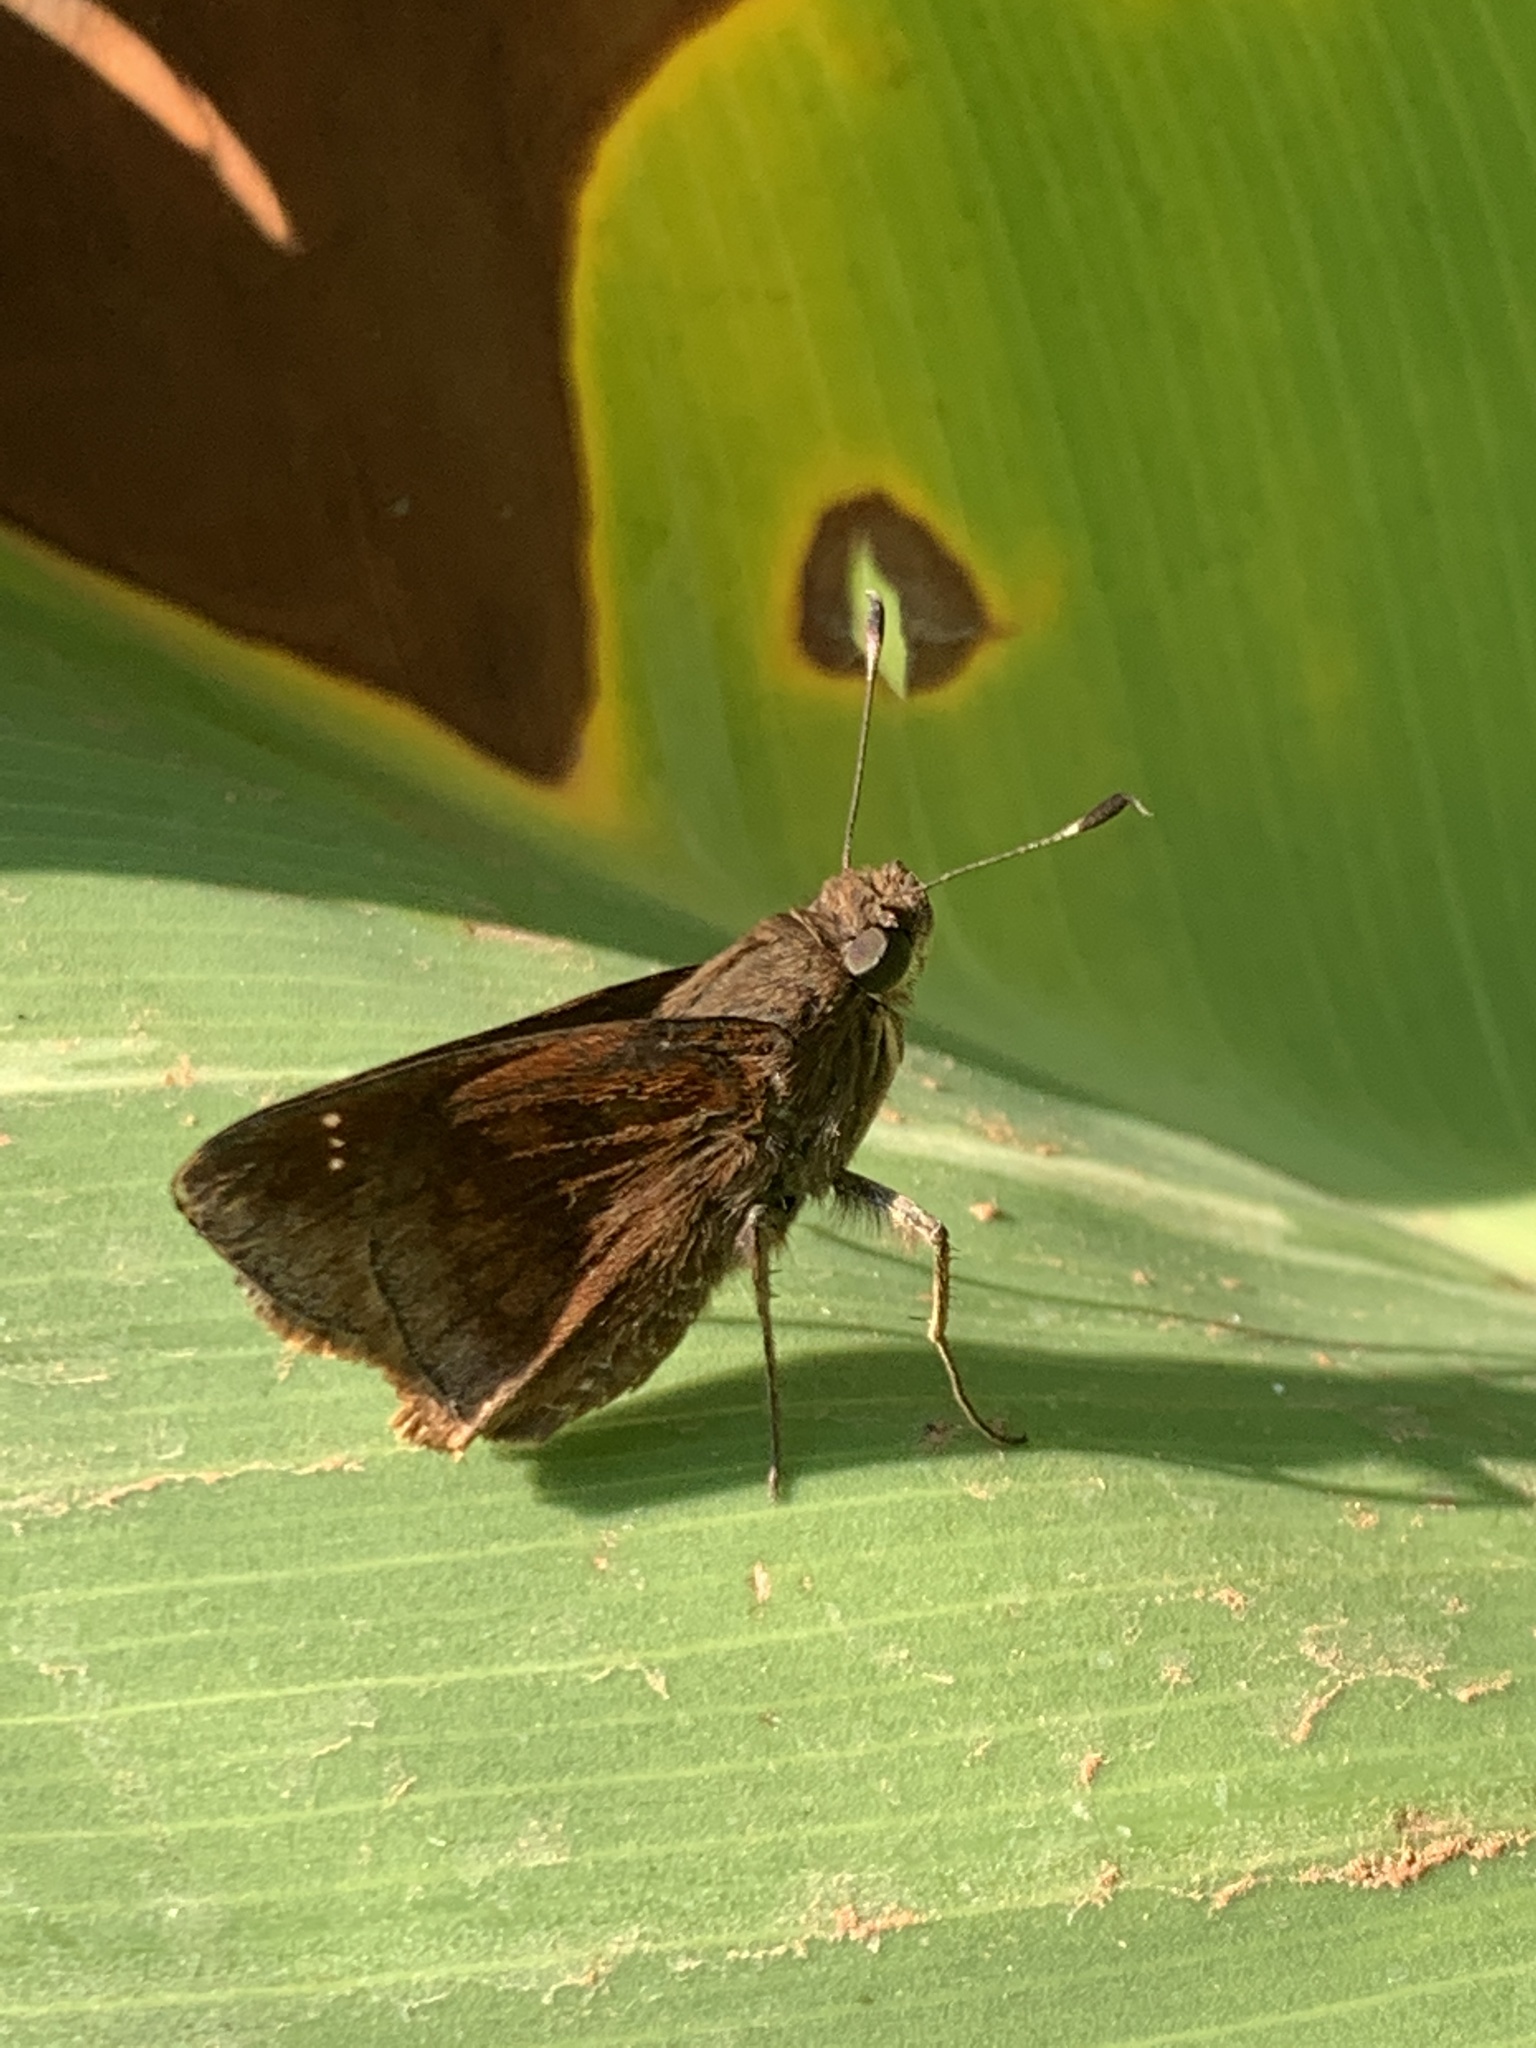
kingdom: Animalia
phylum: Arthropoda
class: Insecta
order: Lepidoptera
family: Hesperiidae
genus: Quinta
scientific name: Quinta cannae
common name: Canna skipper
